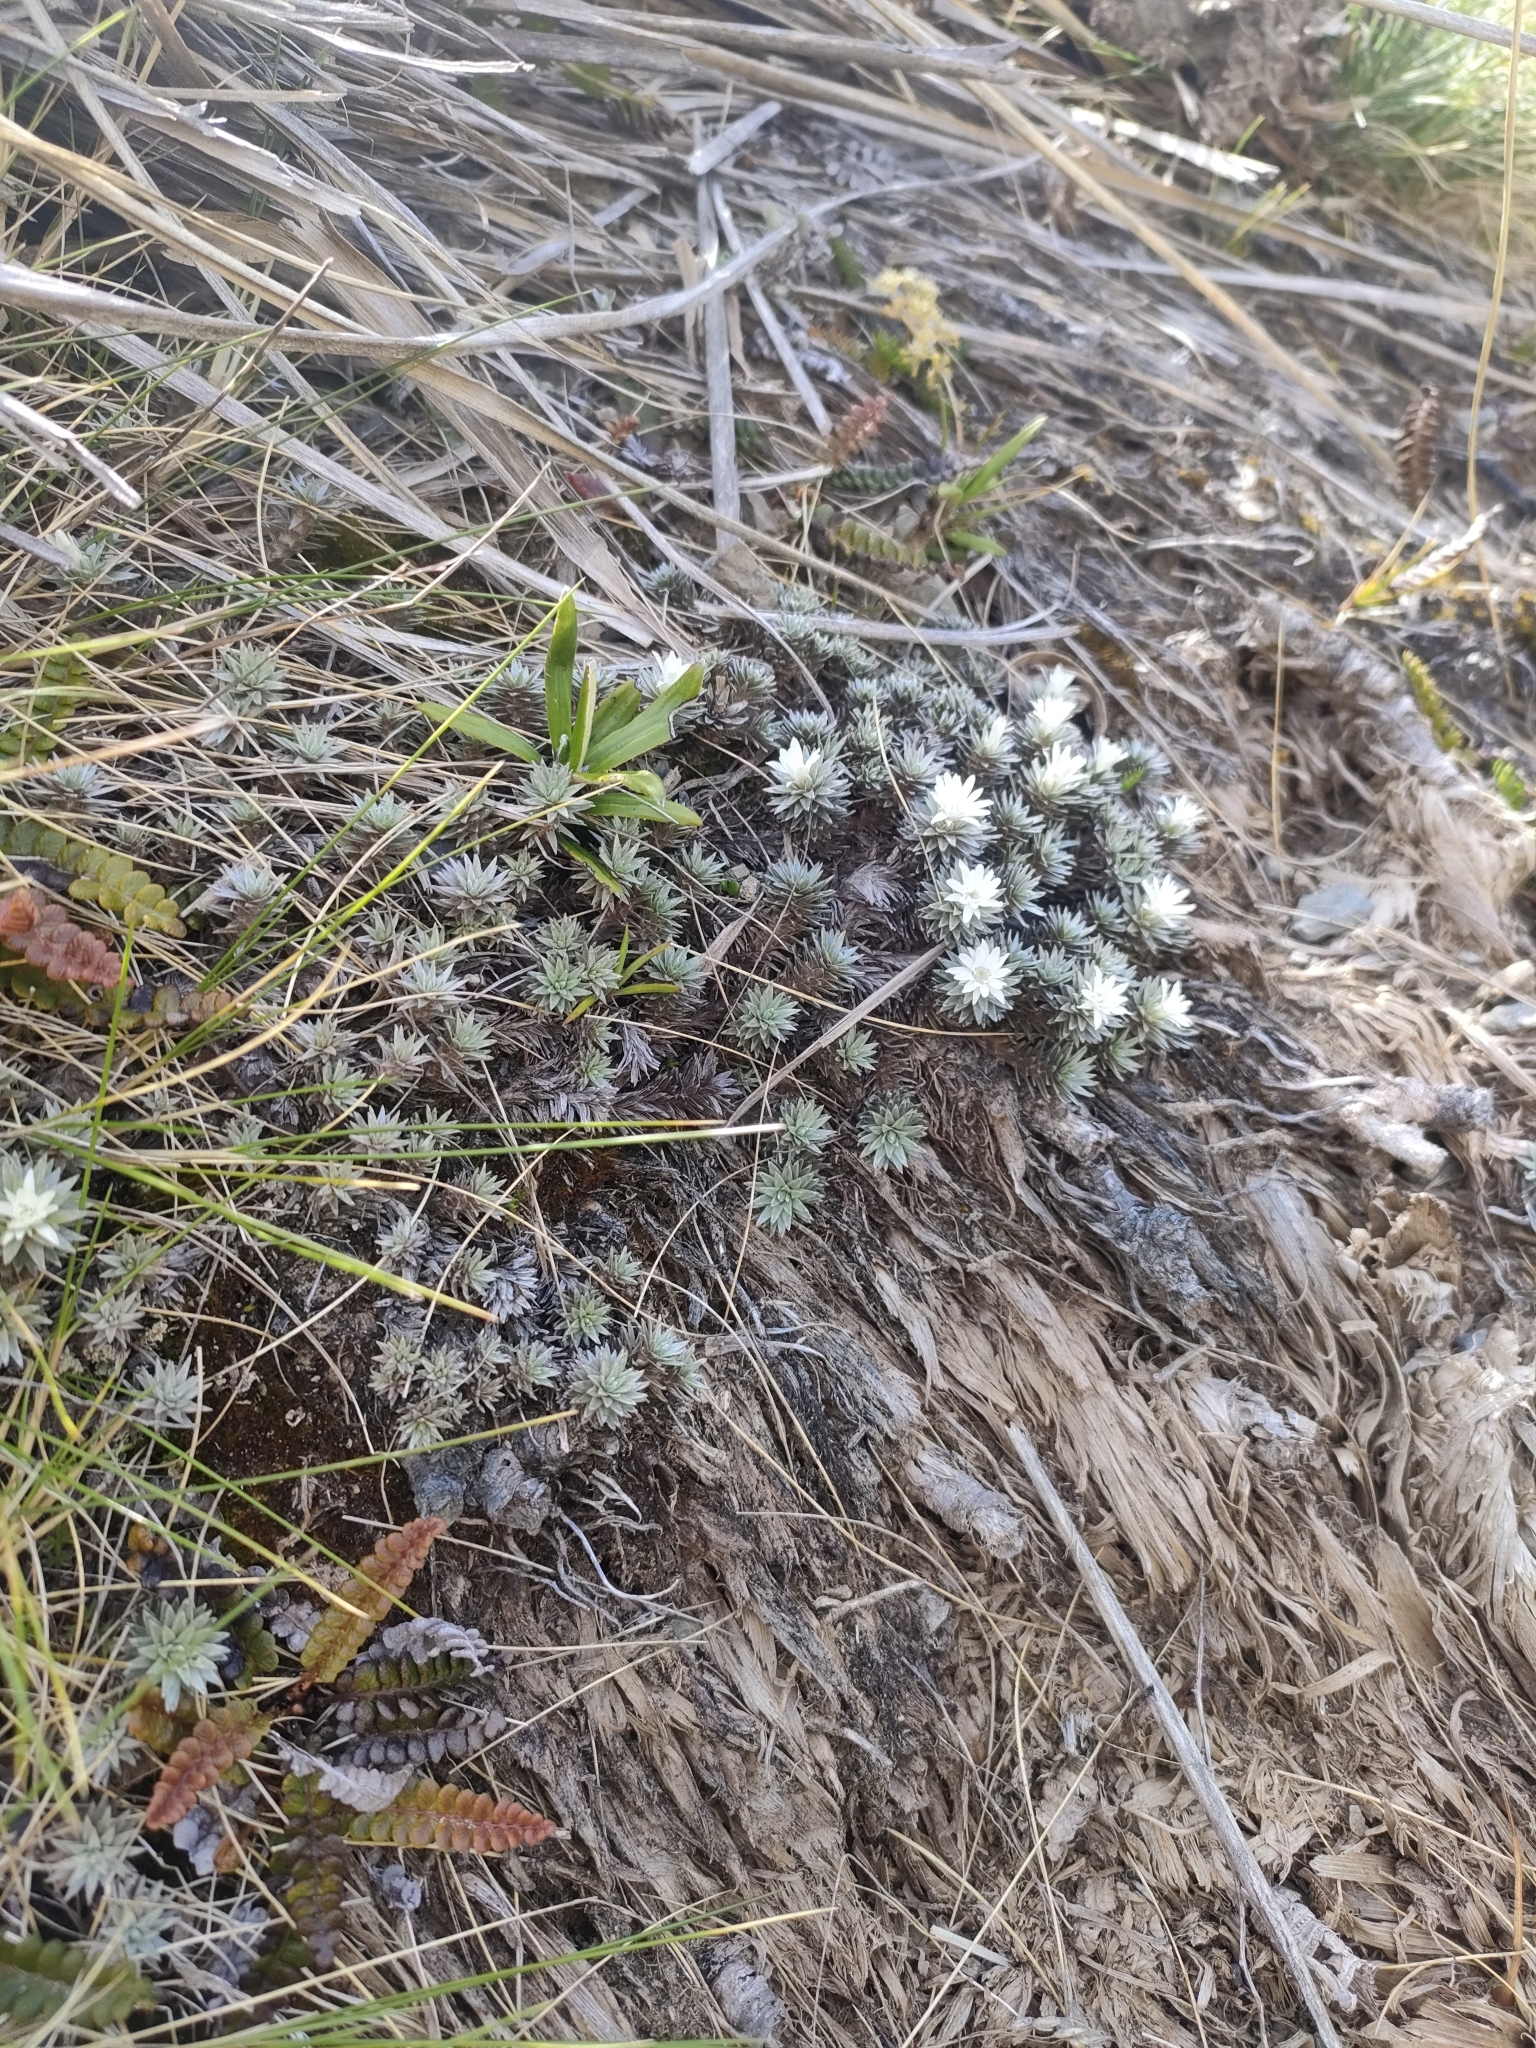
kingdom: Plantae
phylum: Tracheophyta
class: Magnoliopsida
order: Asterales
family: Asteraceae
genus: Raoulia
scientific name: Raoulia grandiflora
